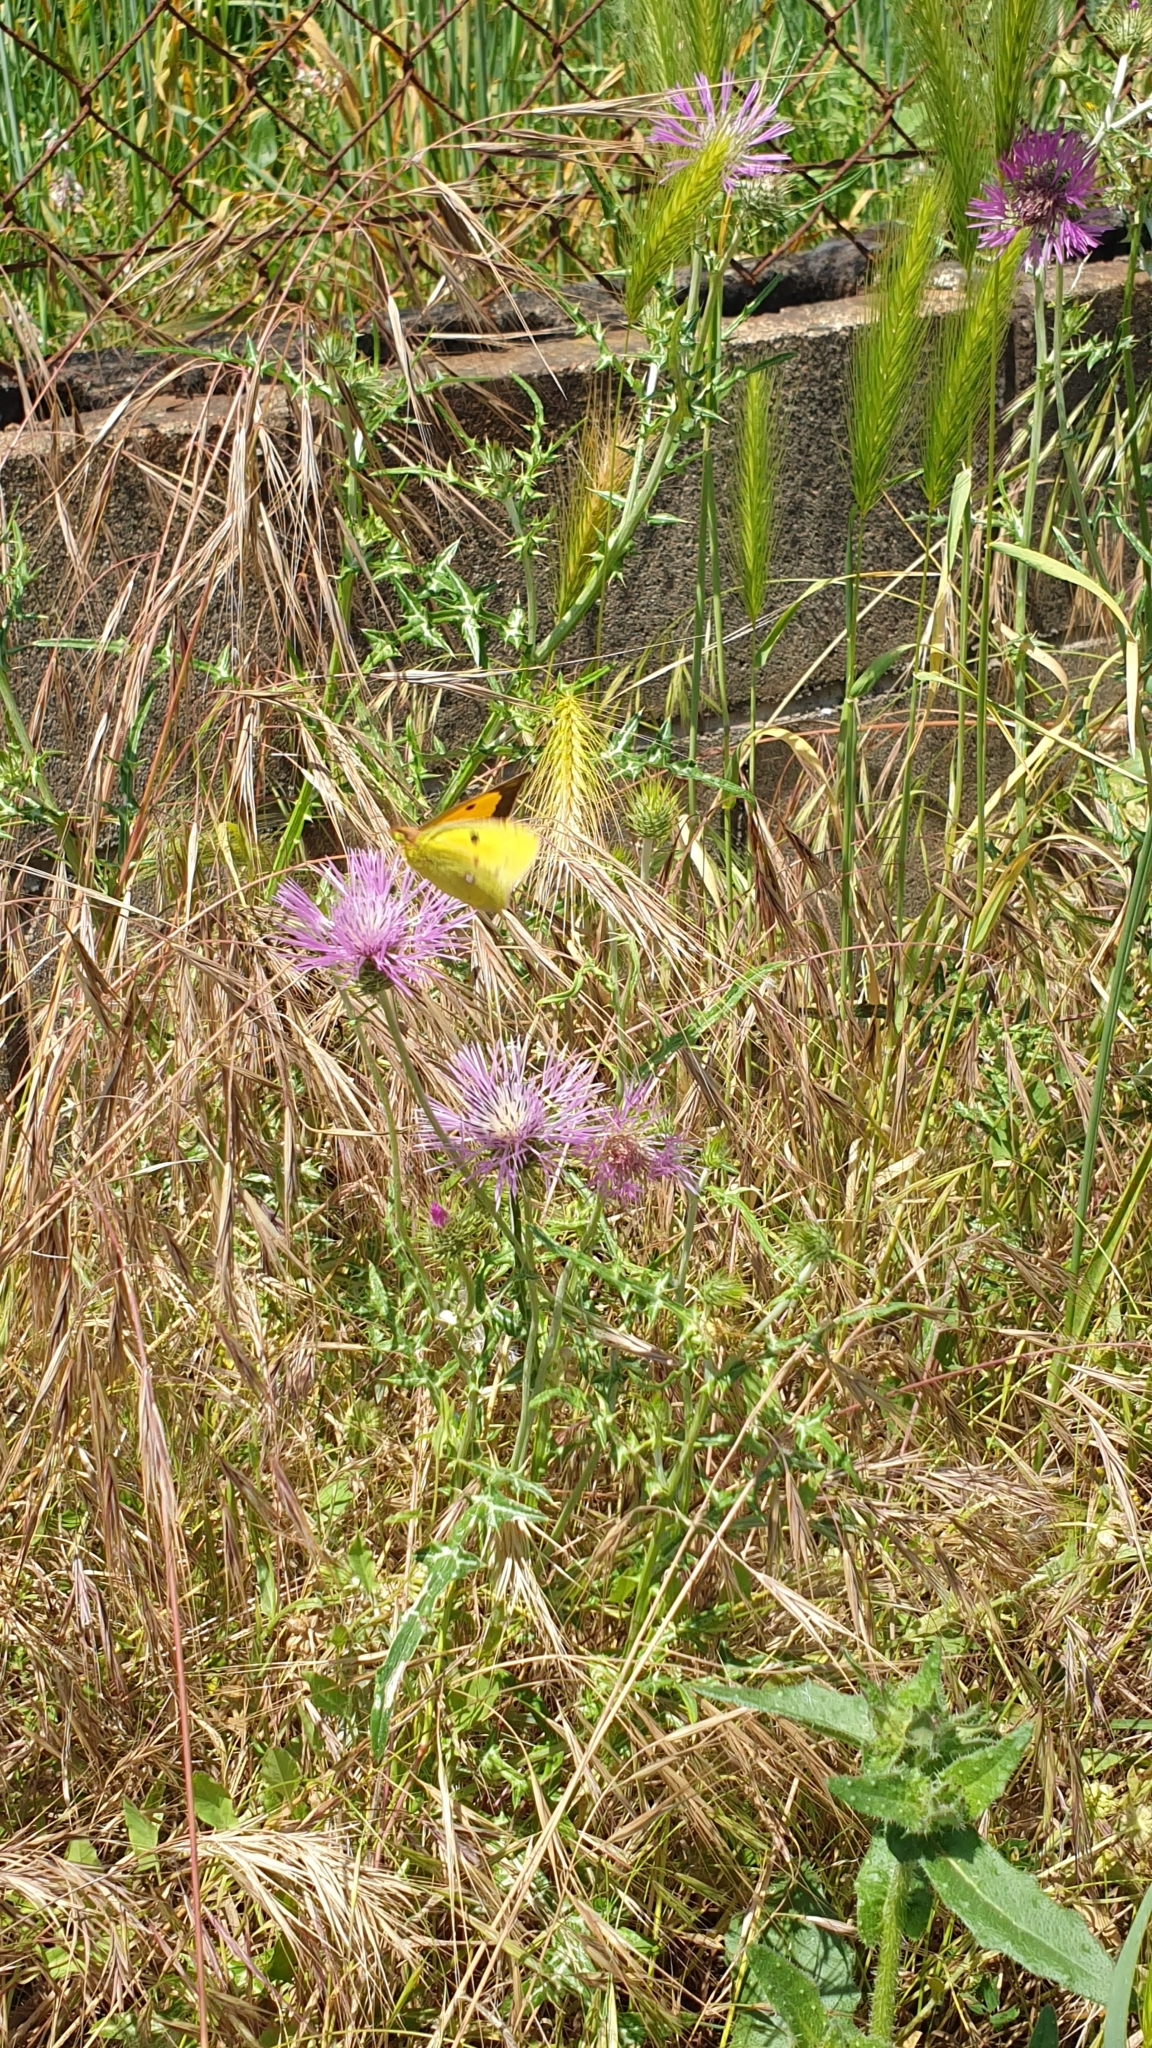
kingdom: Animalia
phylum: Arthropoda
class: Insecta
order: Lepidoptera
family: Pieridae
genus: Colias
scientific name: Colias croceus
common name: Clouded yellow
